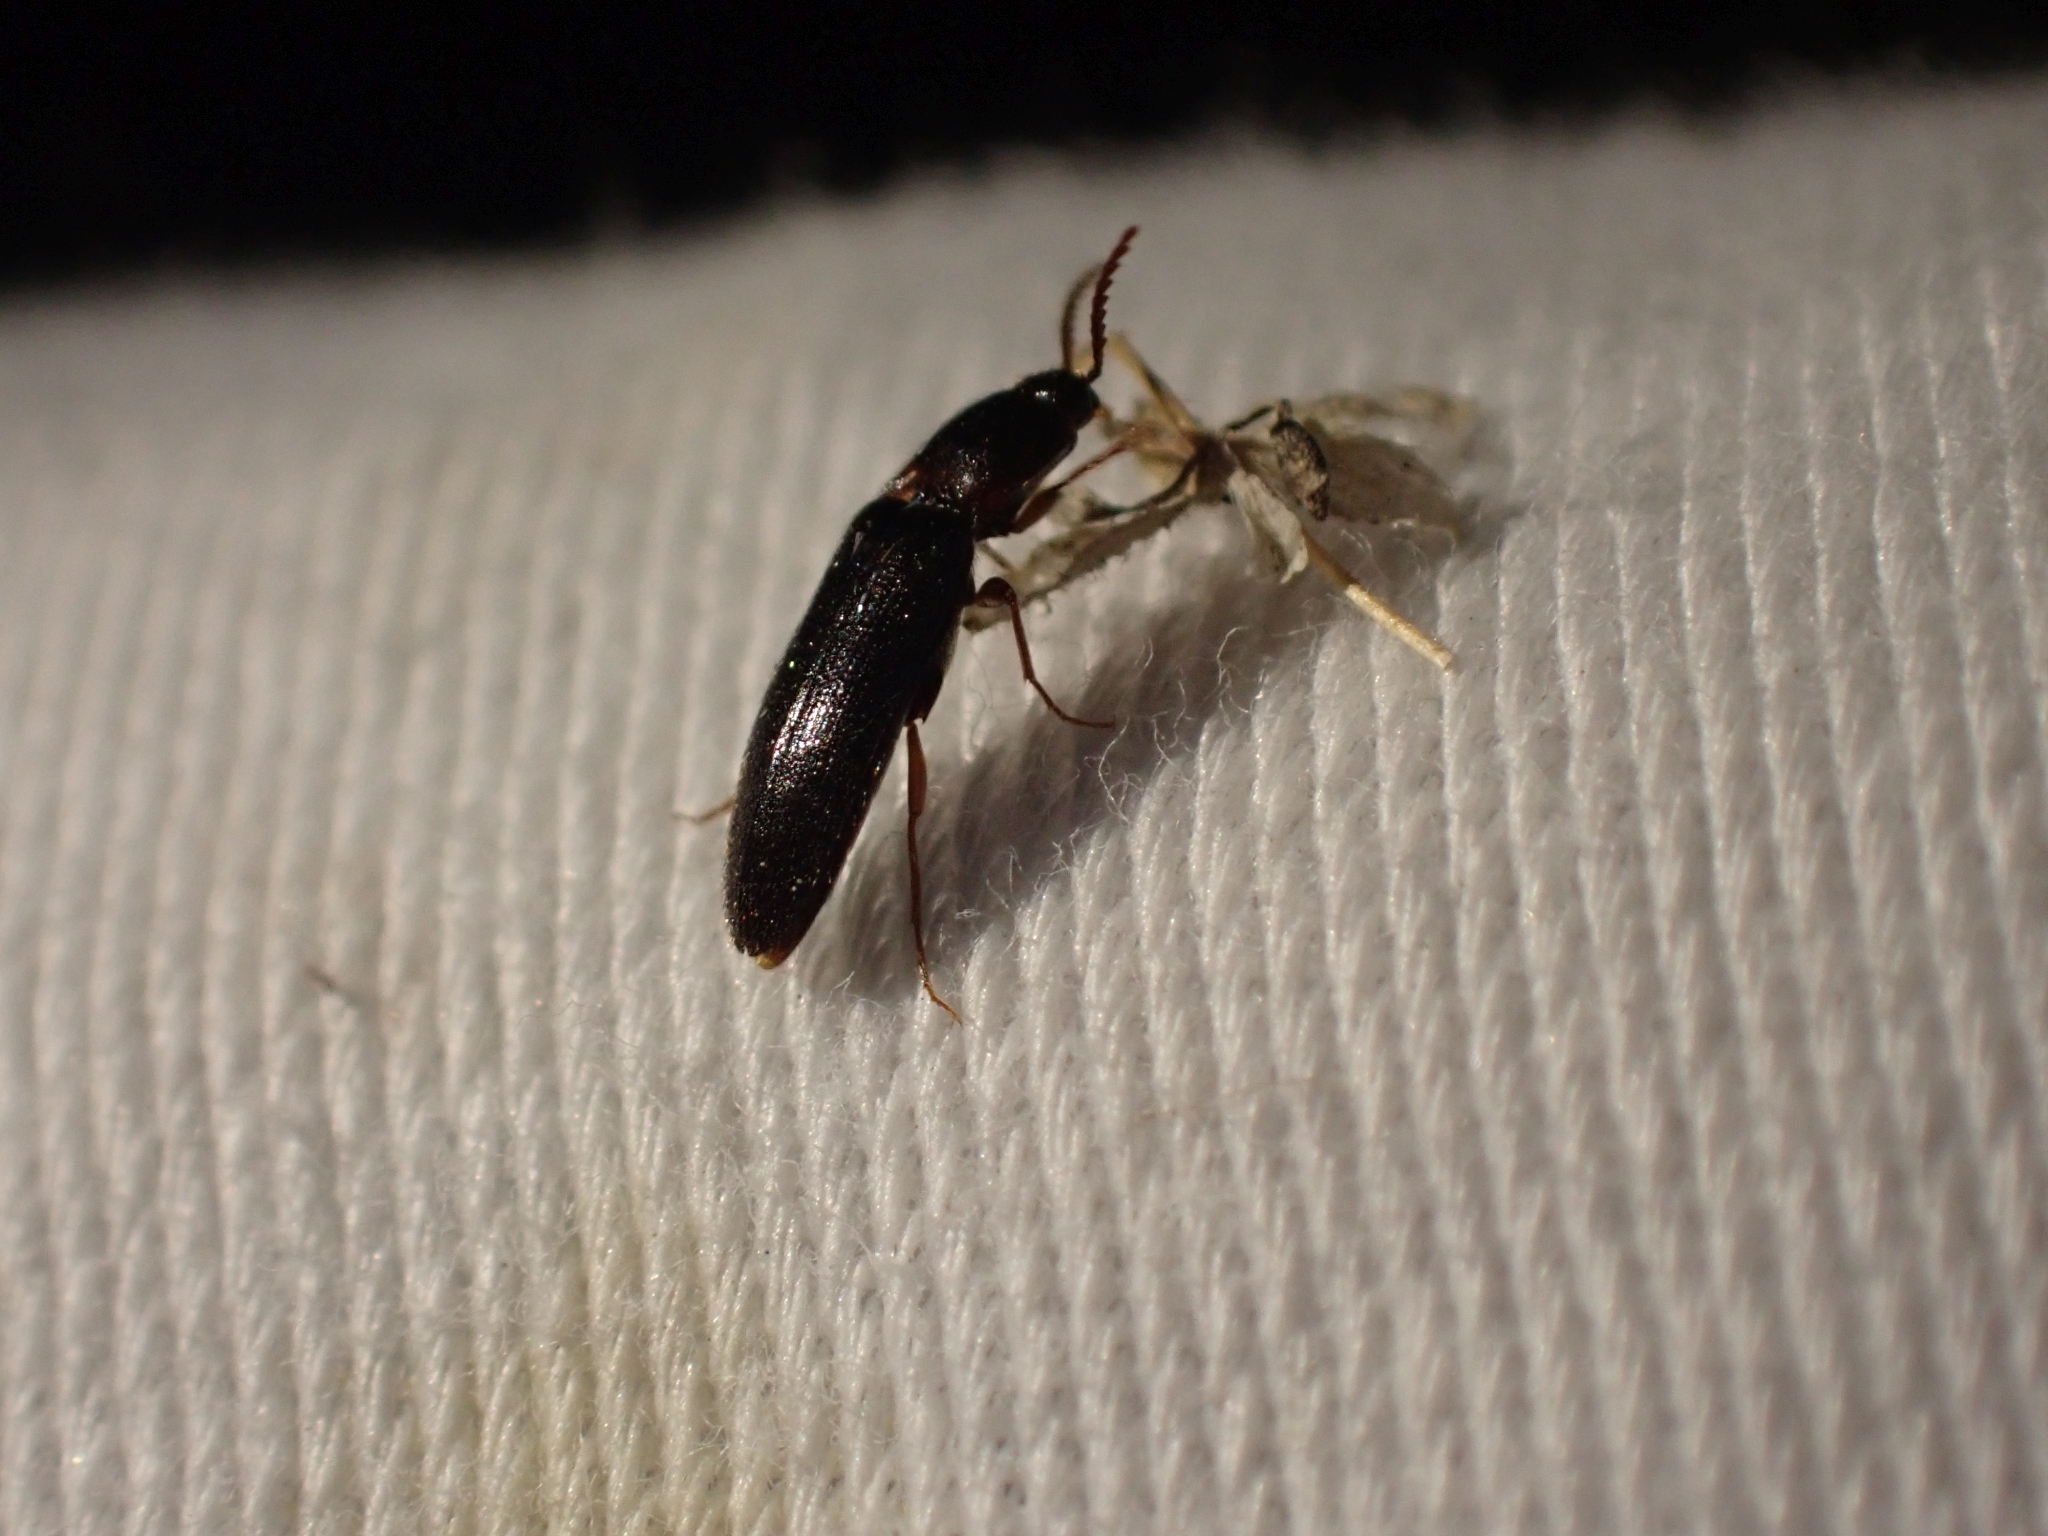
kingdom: Animalia
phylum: Arthropoda
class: Insecta
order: Coleoptera
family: Elateridae
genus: Ampedus
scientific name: Ampedus atripennis
